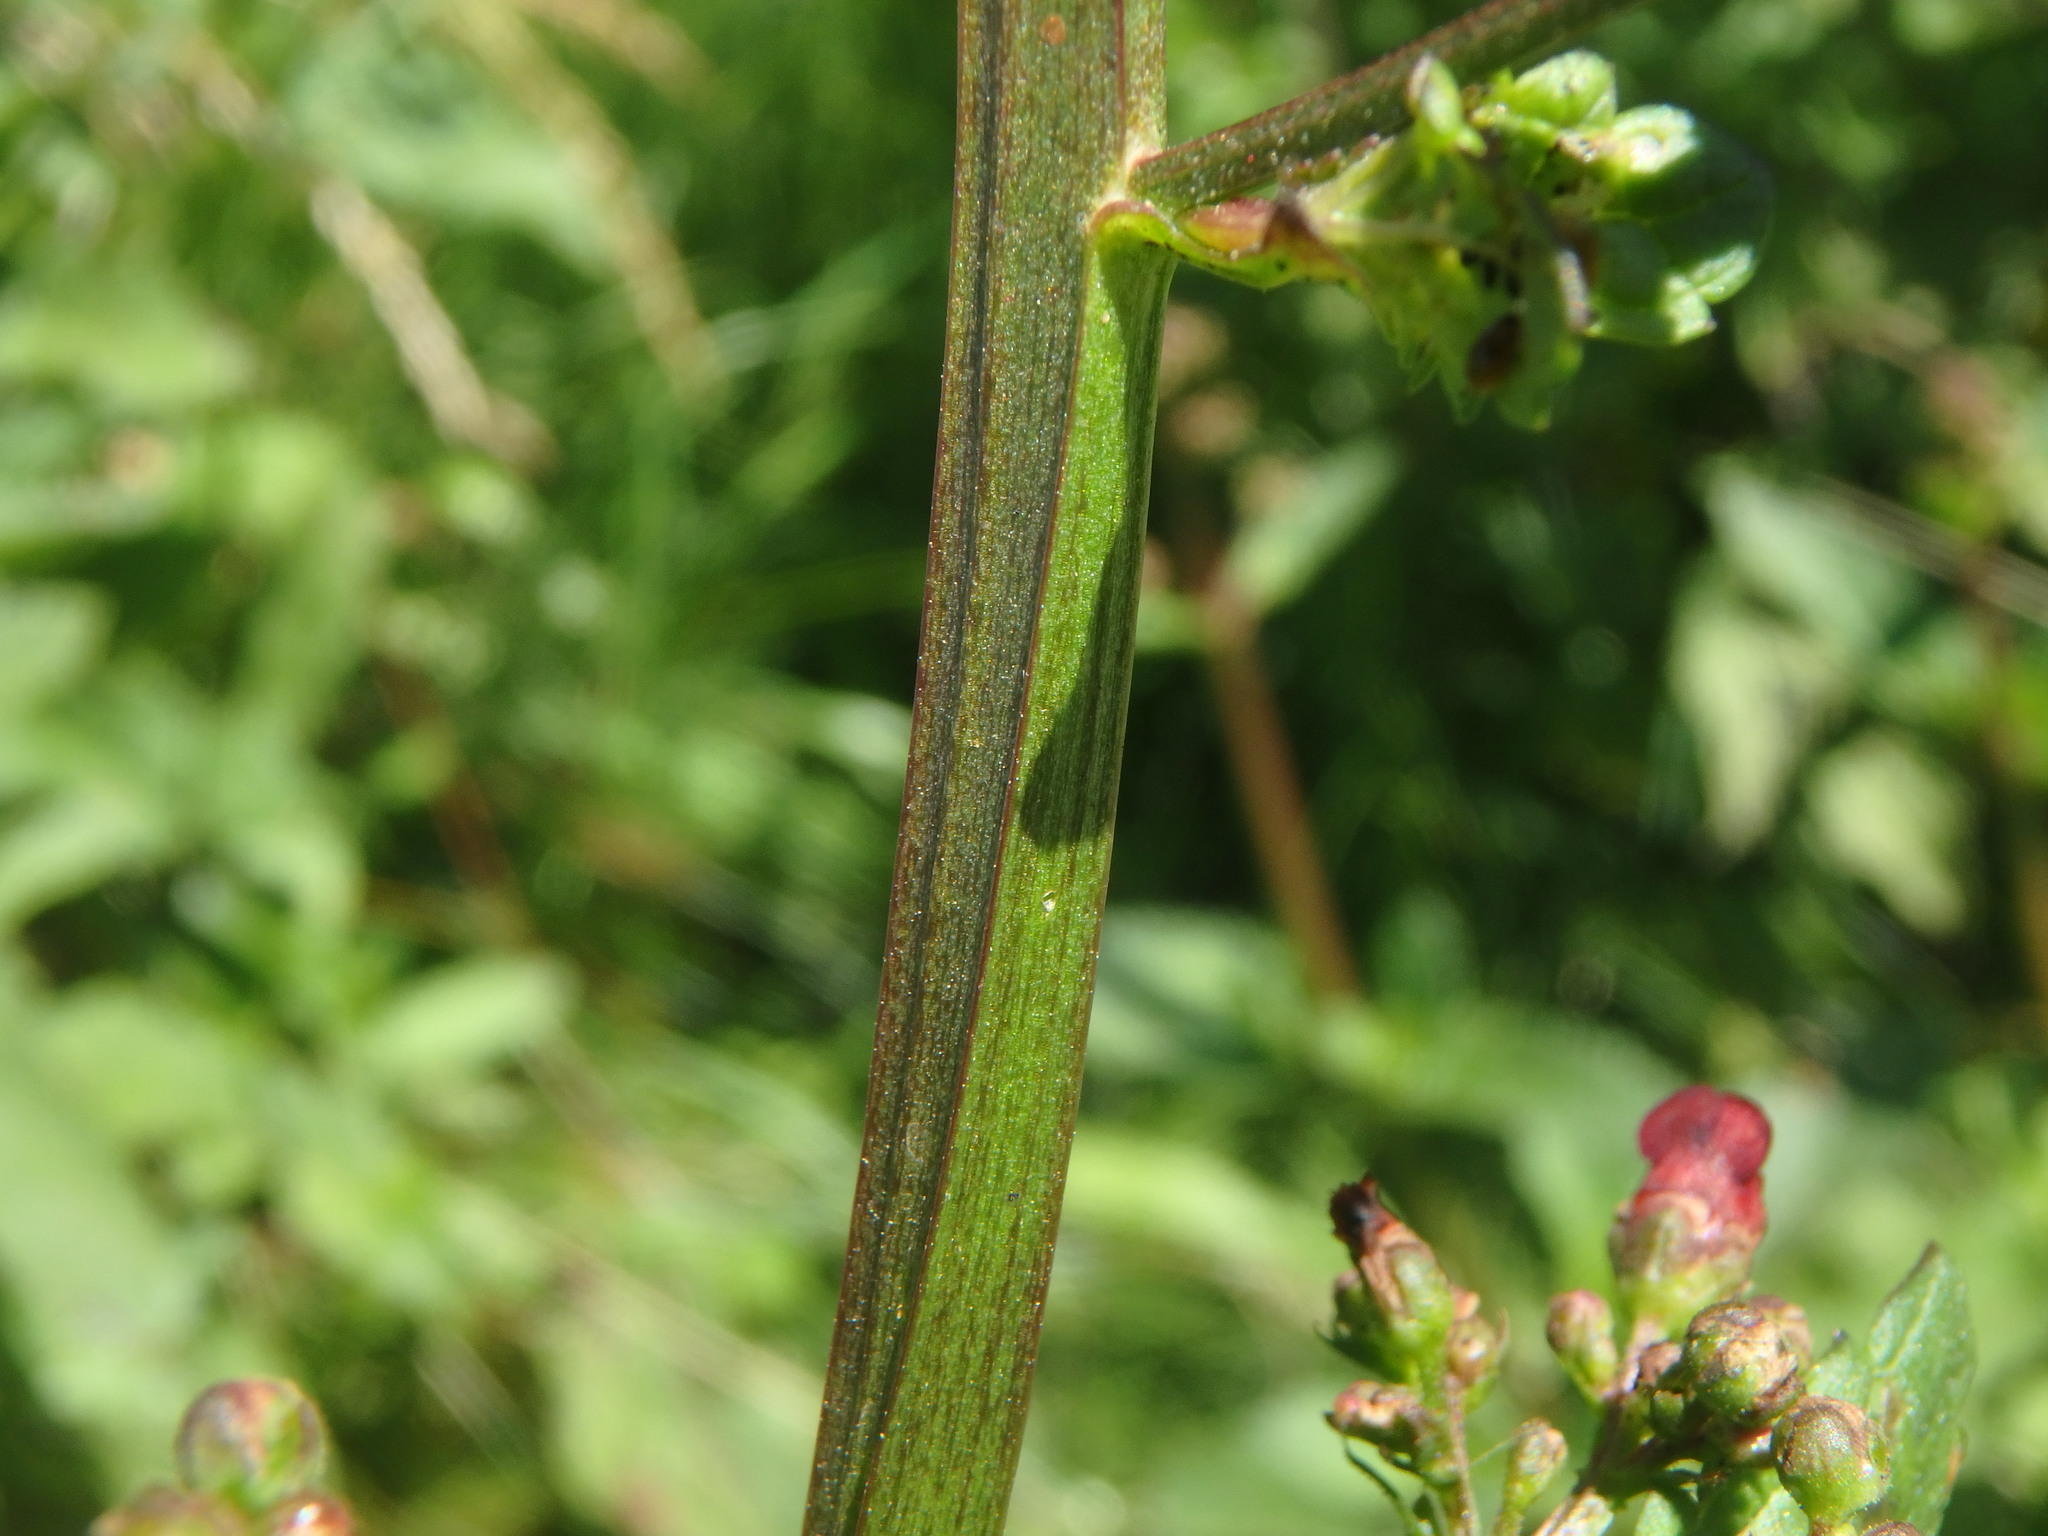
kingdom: Plantae
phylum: Tracheophyta
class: Magnoliopsida
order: Lamiales
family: Scrophulariaceae
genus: Scrophularia
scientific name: Scrophularia nodosa
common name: Common figwort
